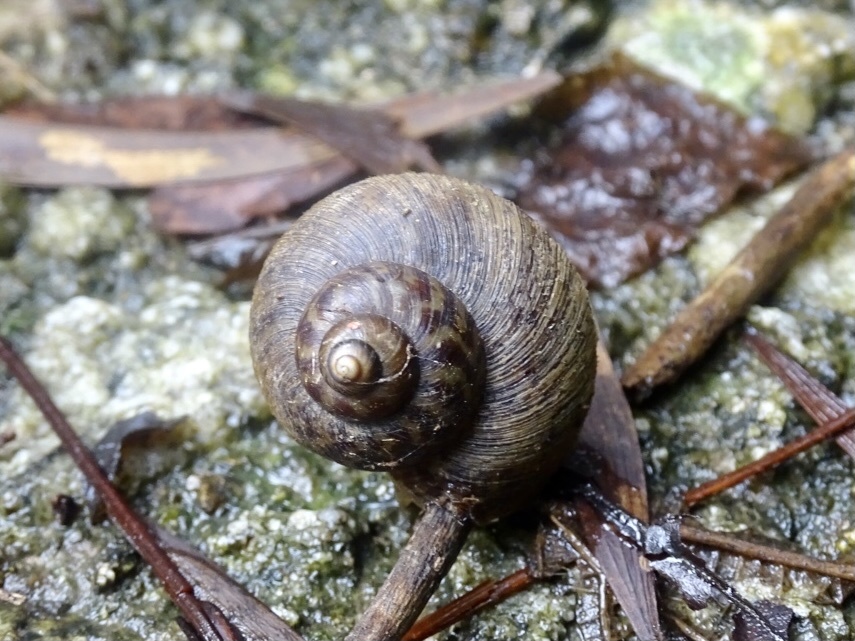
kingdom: Animalia
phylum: Mollusca
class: Gastropoda
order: Architaenioglossa
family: Cyclophoridae
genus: Cyclophorus
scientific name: Cyclophorus punctatus
